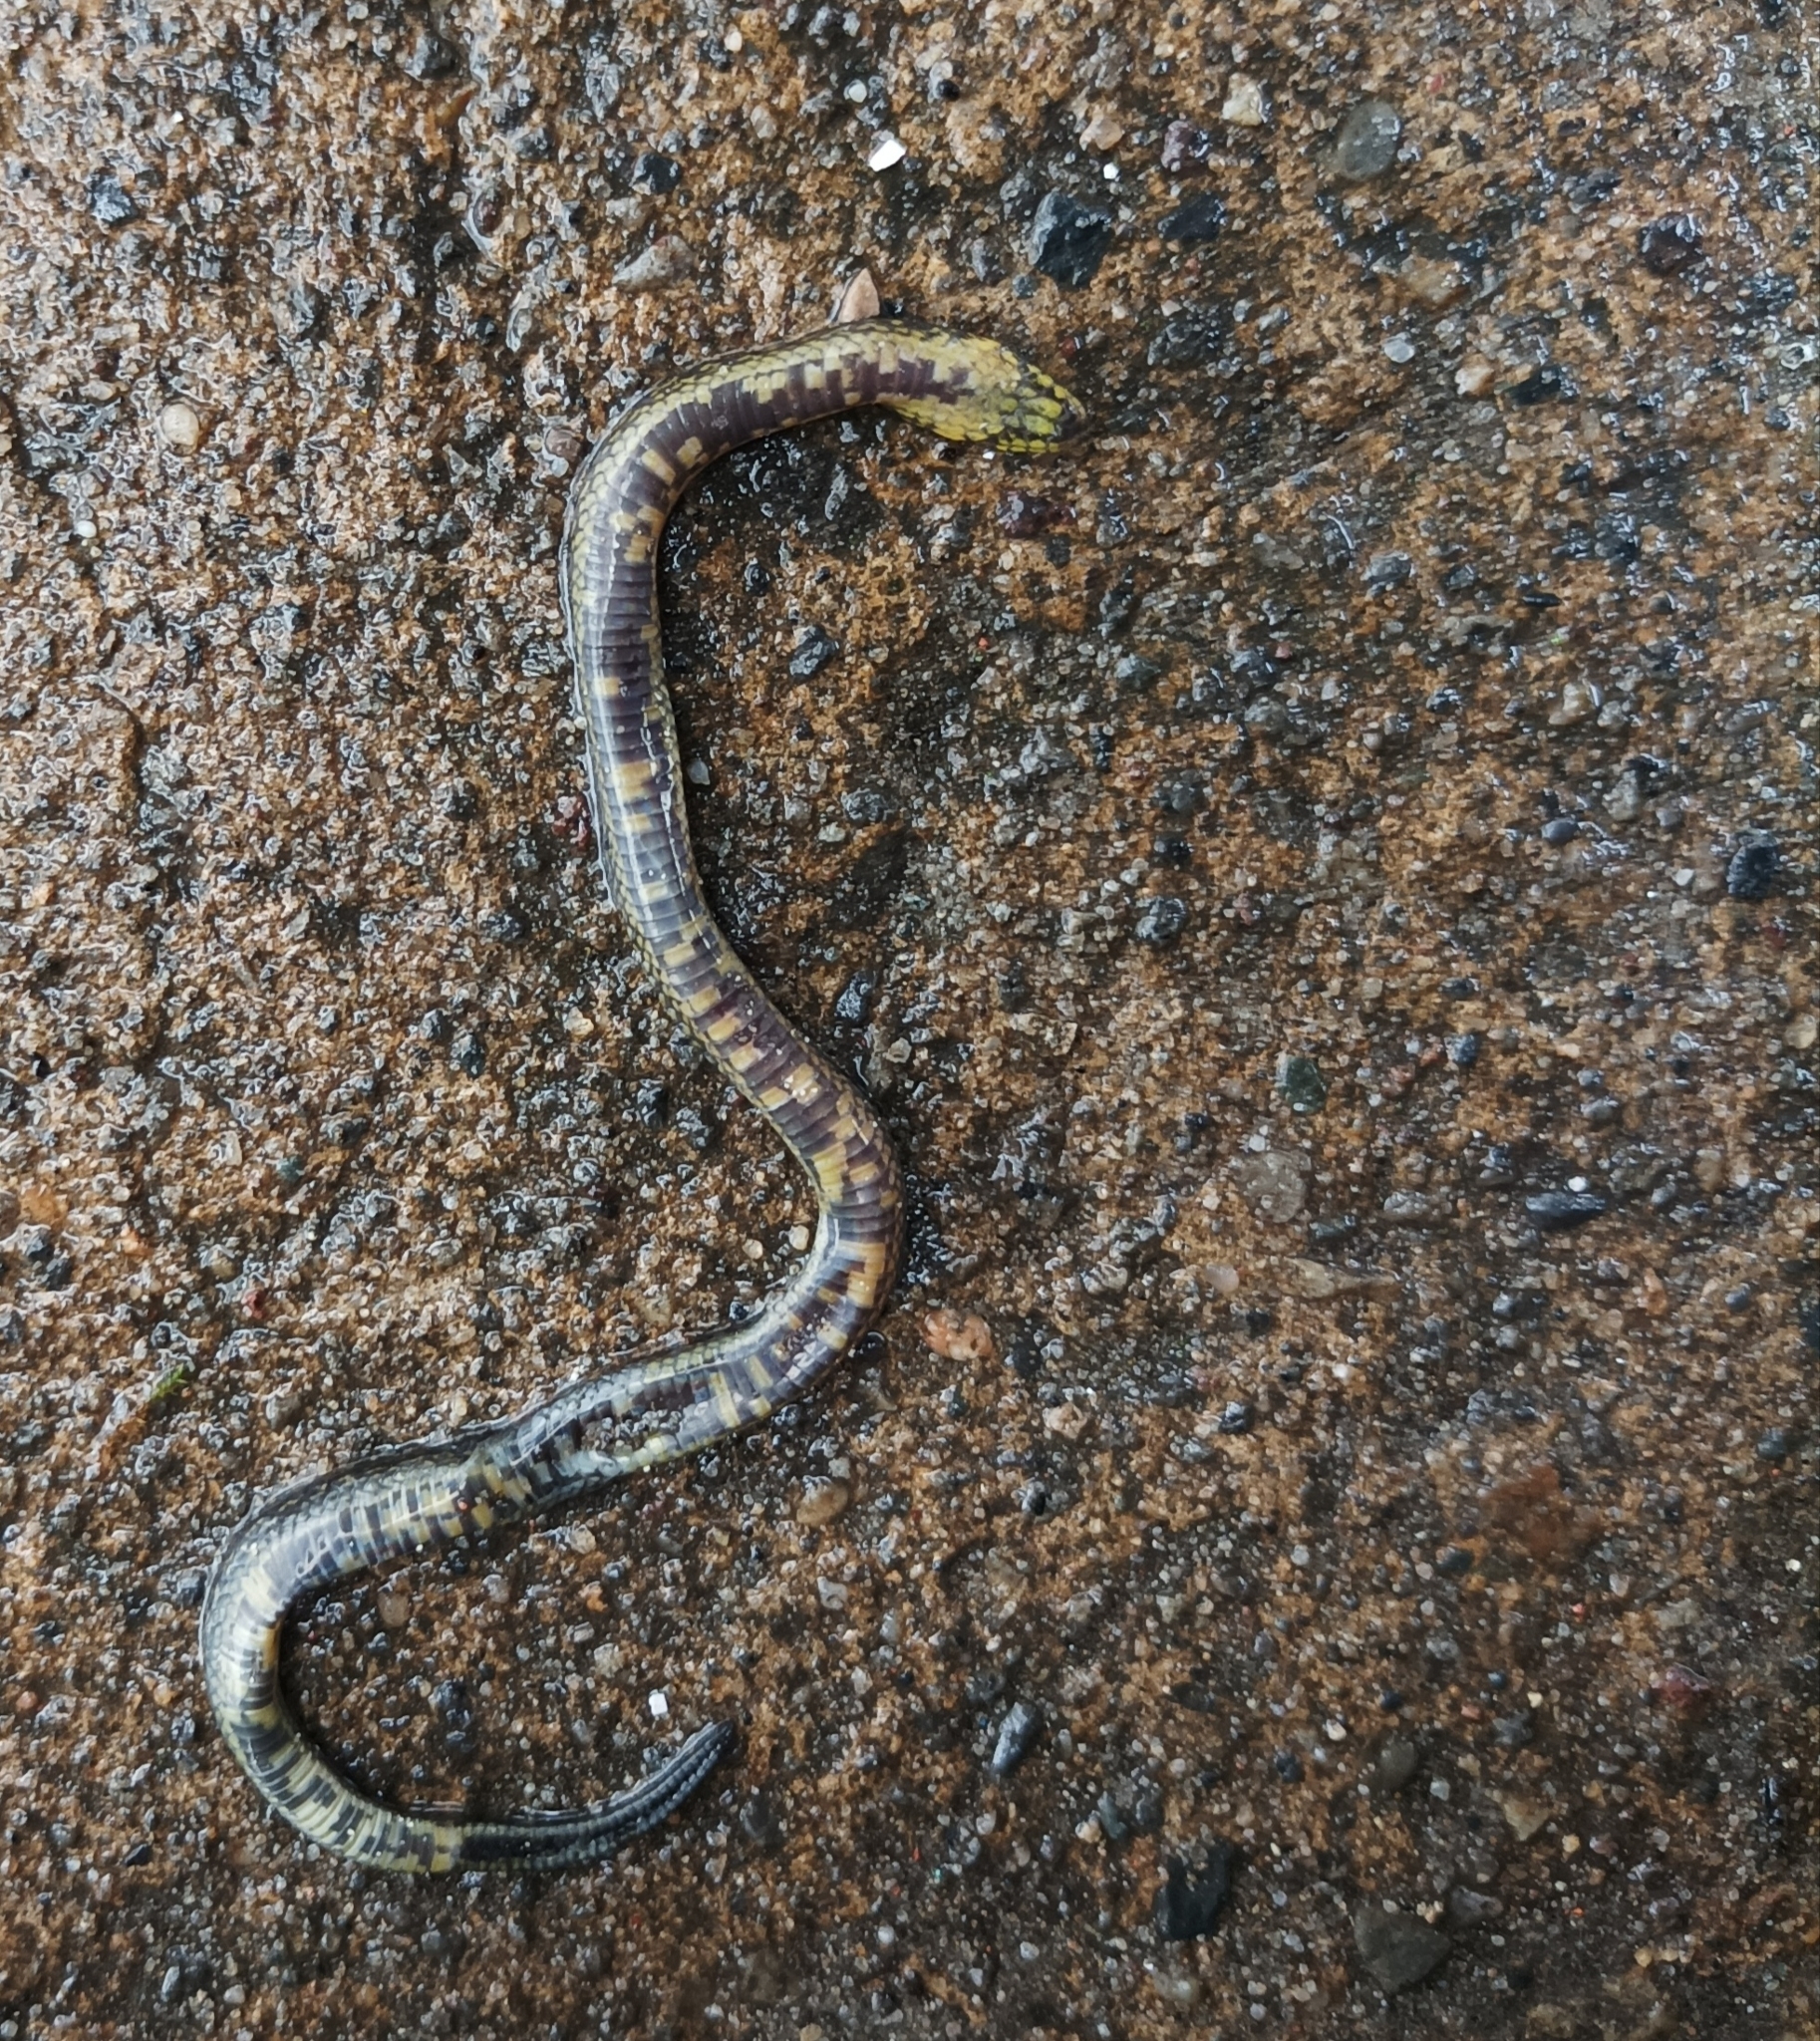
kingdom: Animalia
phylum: Chordata
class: Squamata
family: Colubridae
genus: Atractus
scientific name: Atractus crassicaudatus
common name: Thickhead ground snake
